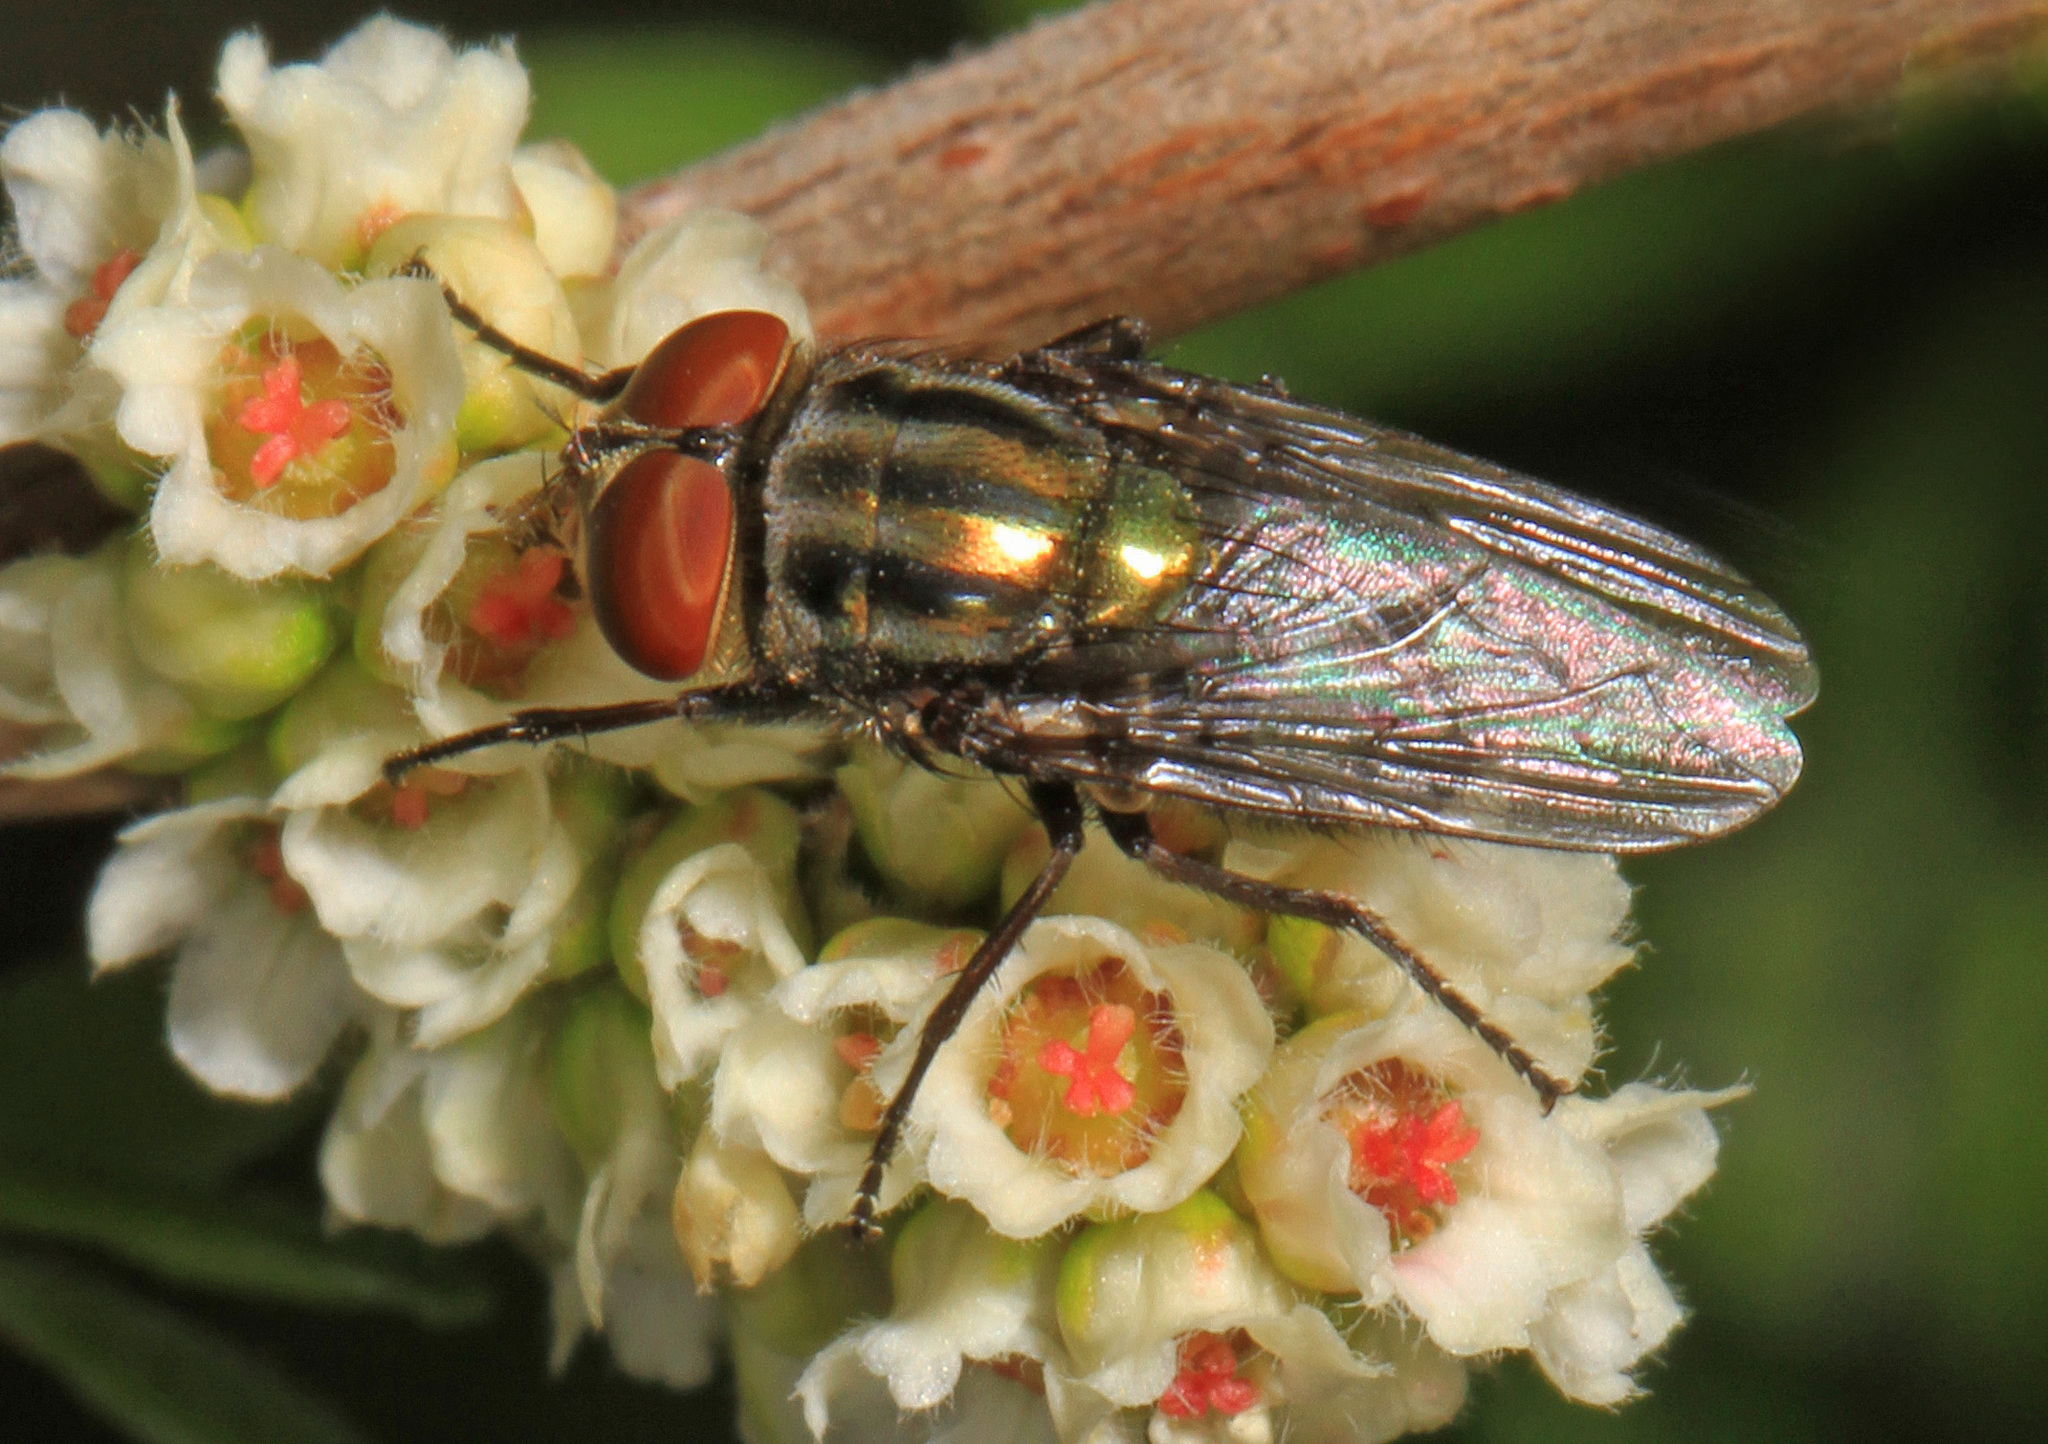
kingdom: Animalia
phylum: Arthropoda
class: Insecta
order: Diptera
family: Calliphoridae
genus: Cochliomyia
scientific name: Cochliomyia macellaria
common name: Secondary screwworm
